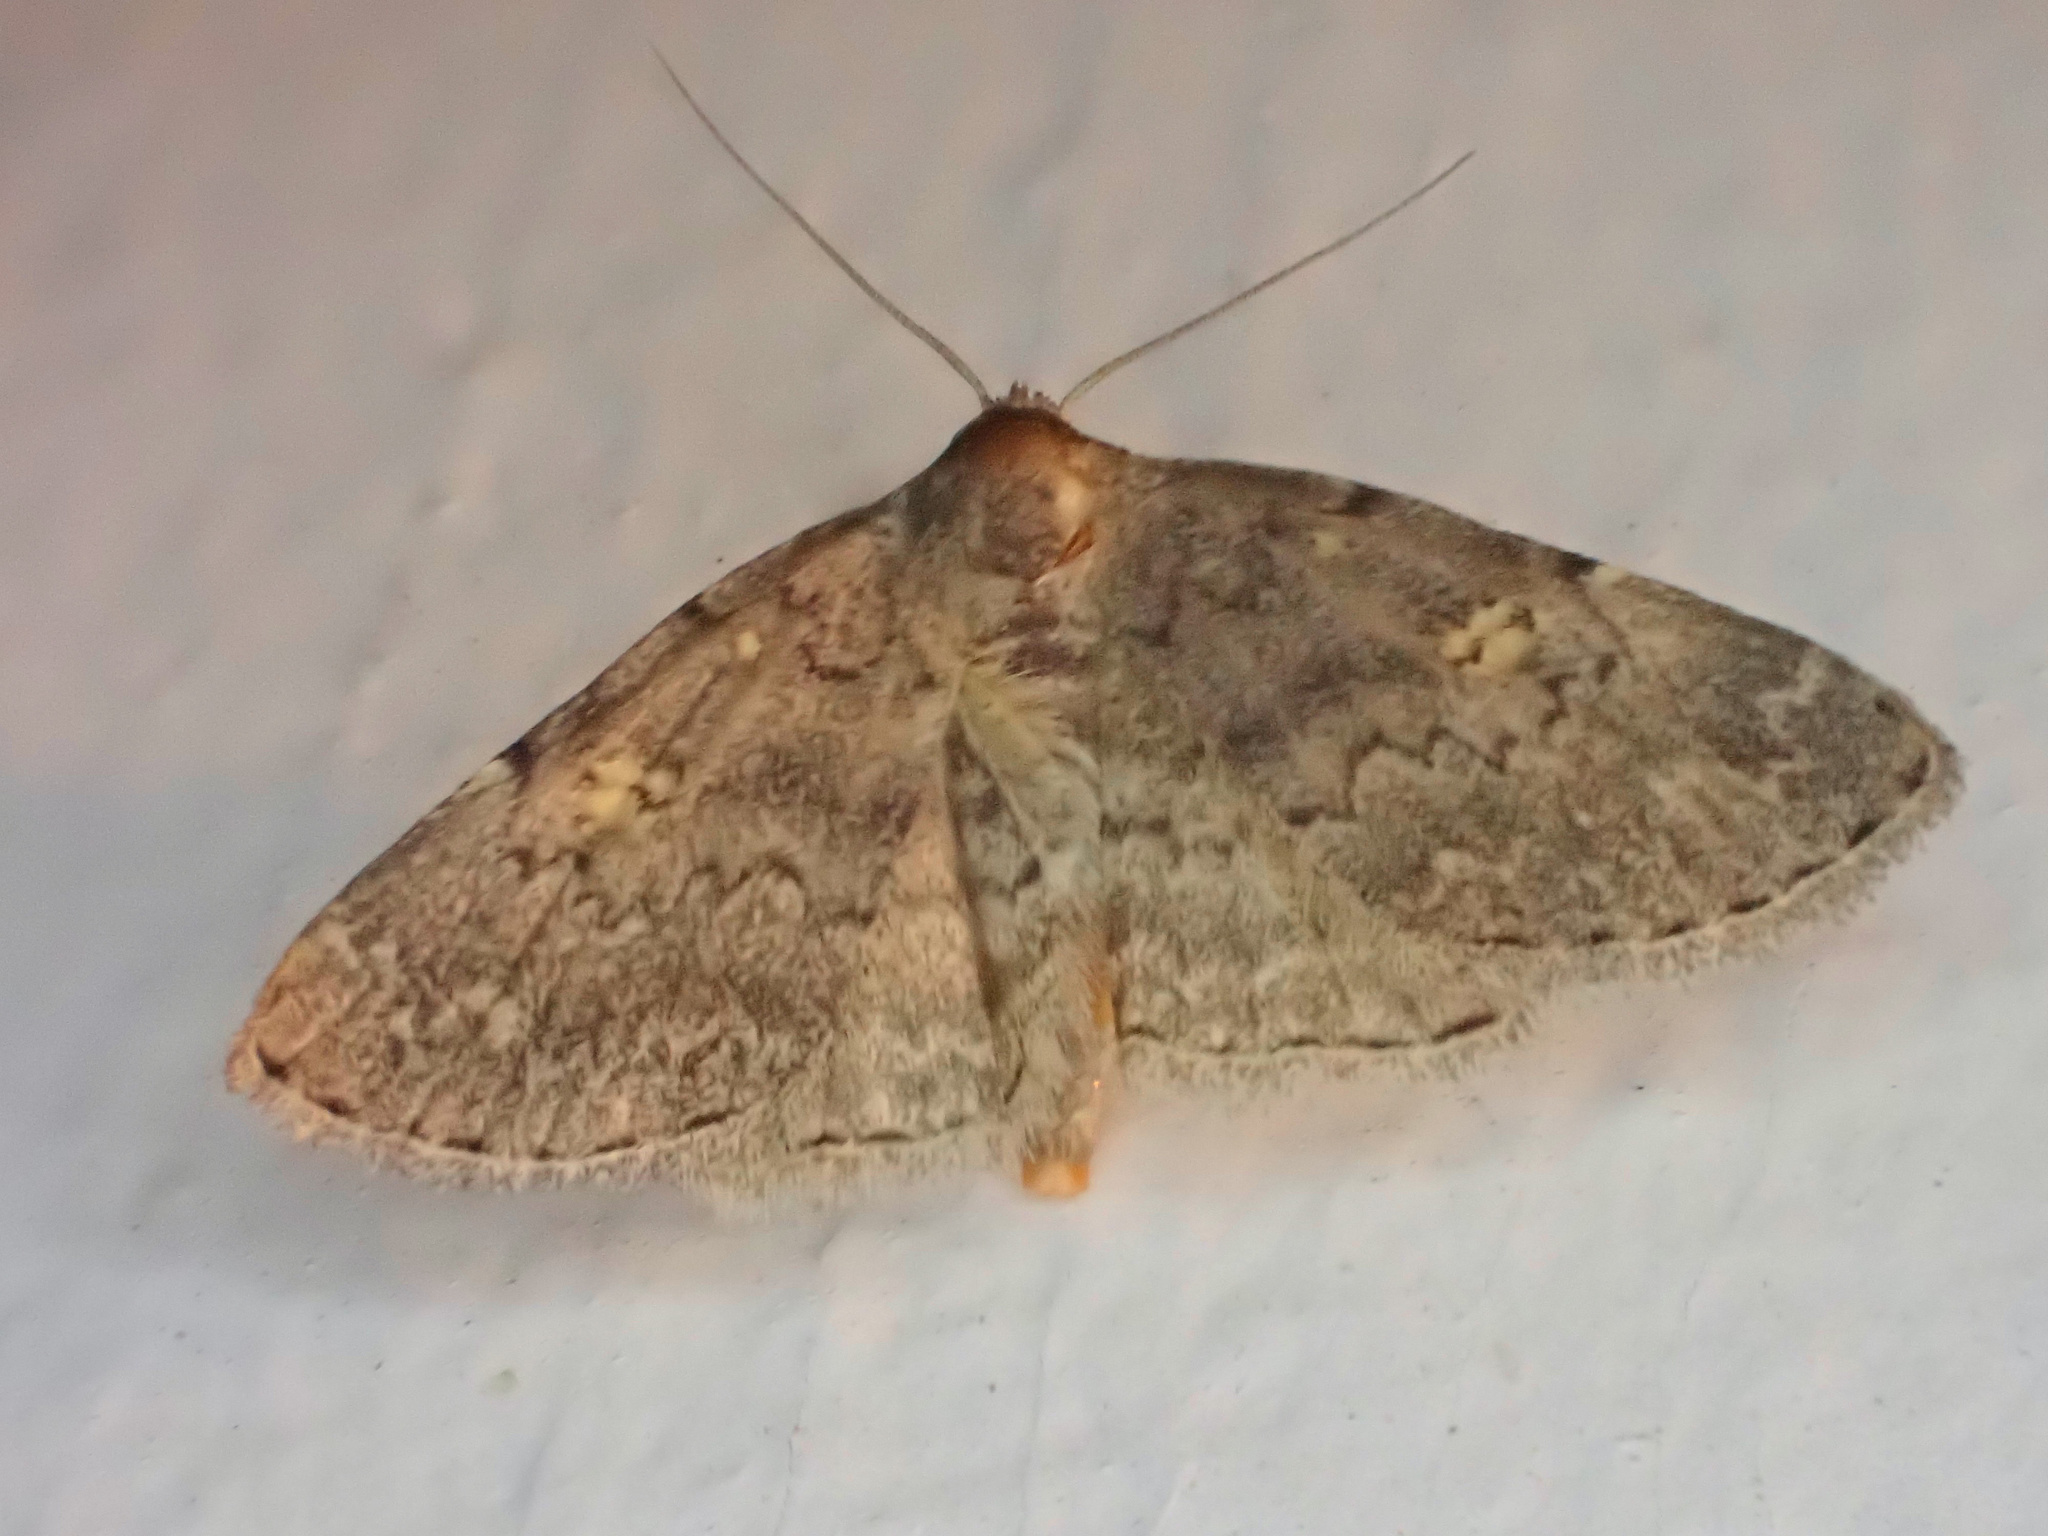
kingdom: Animalia
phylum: Arthropoda
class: Insecta
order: Lepidoptera
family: Erebidae
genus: Idia
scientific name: Idia aemula
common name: Common idia moth
